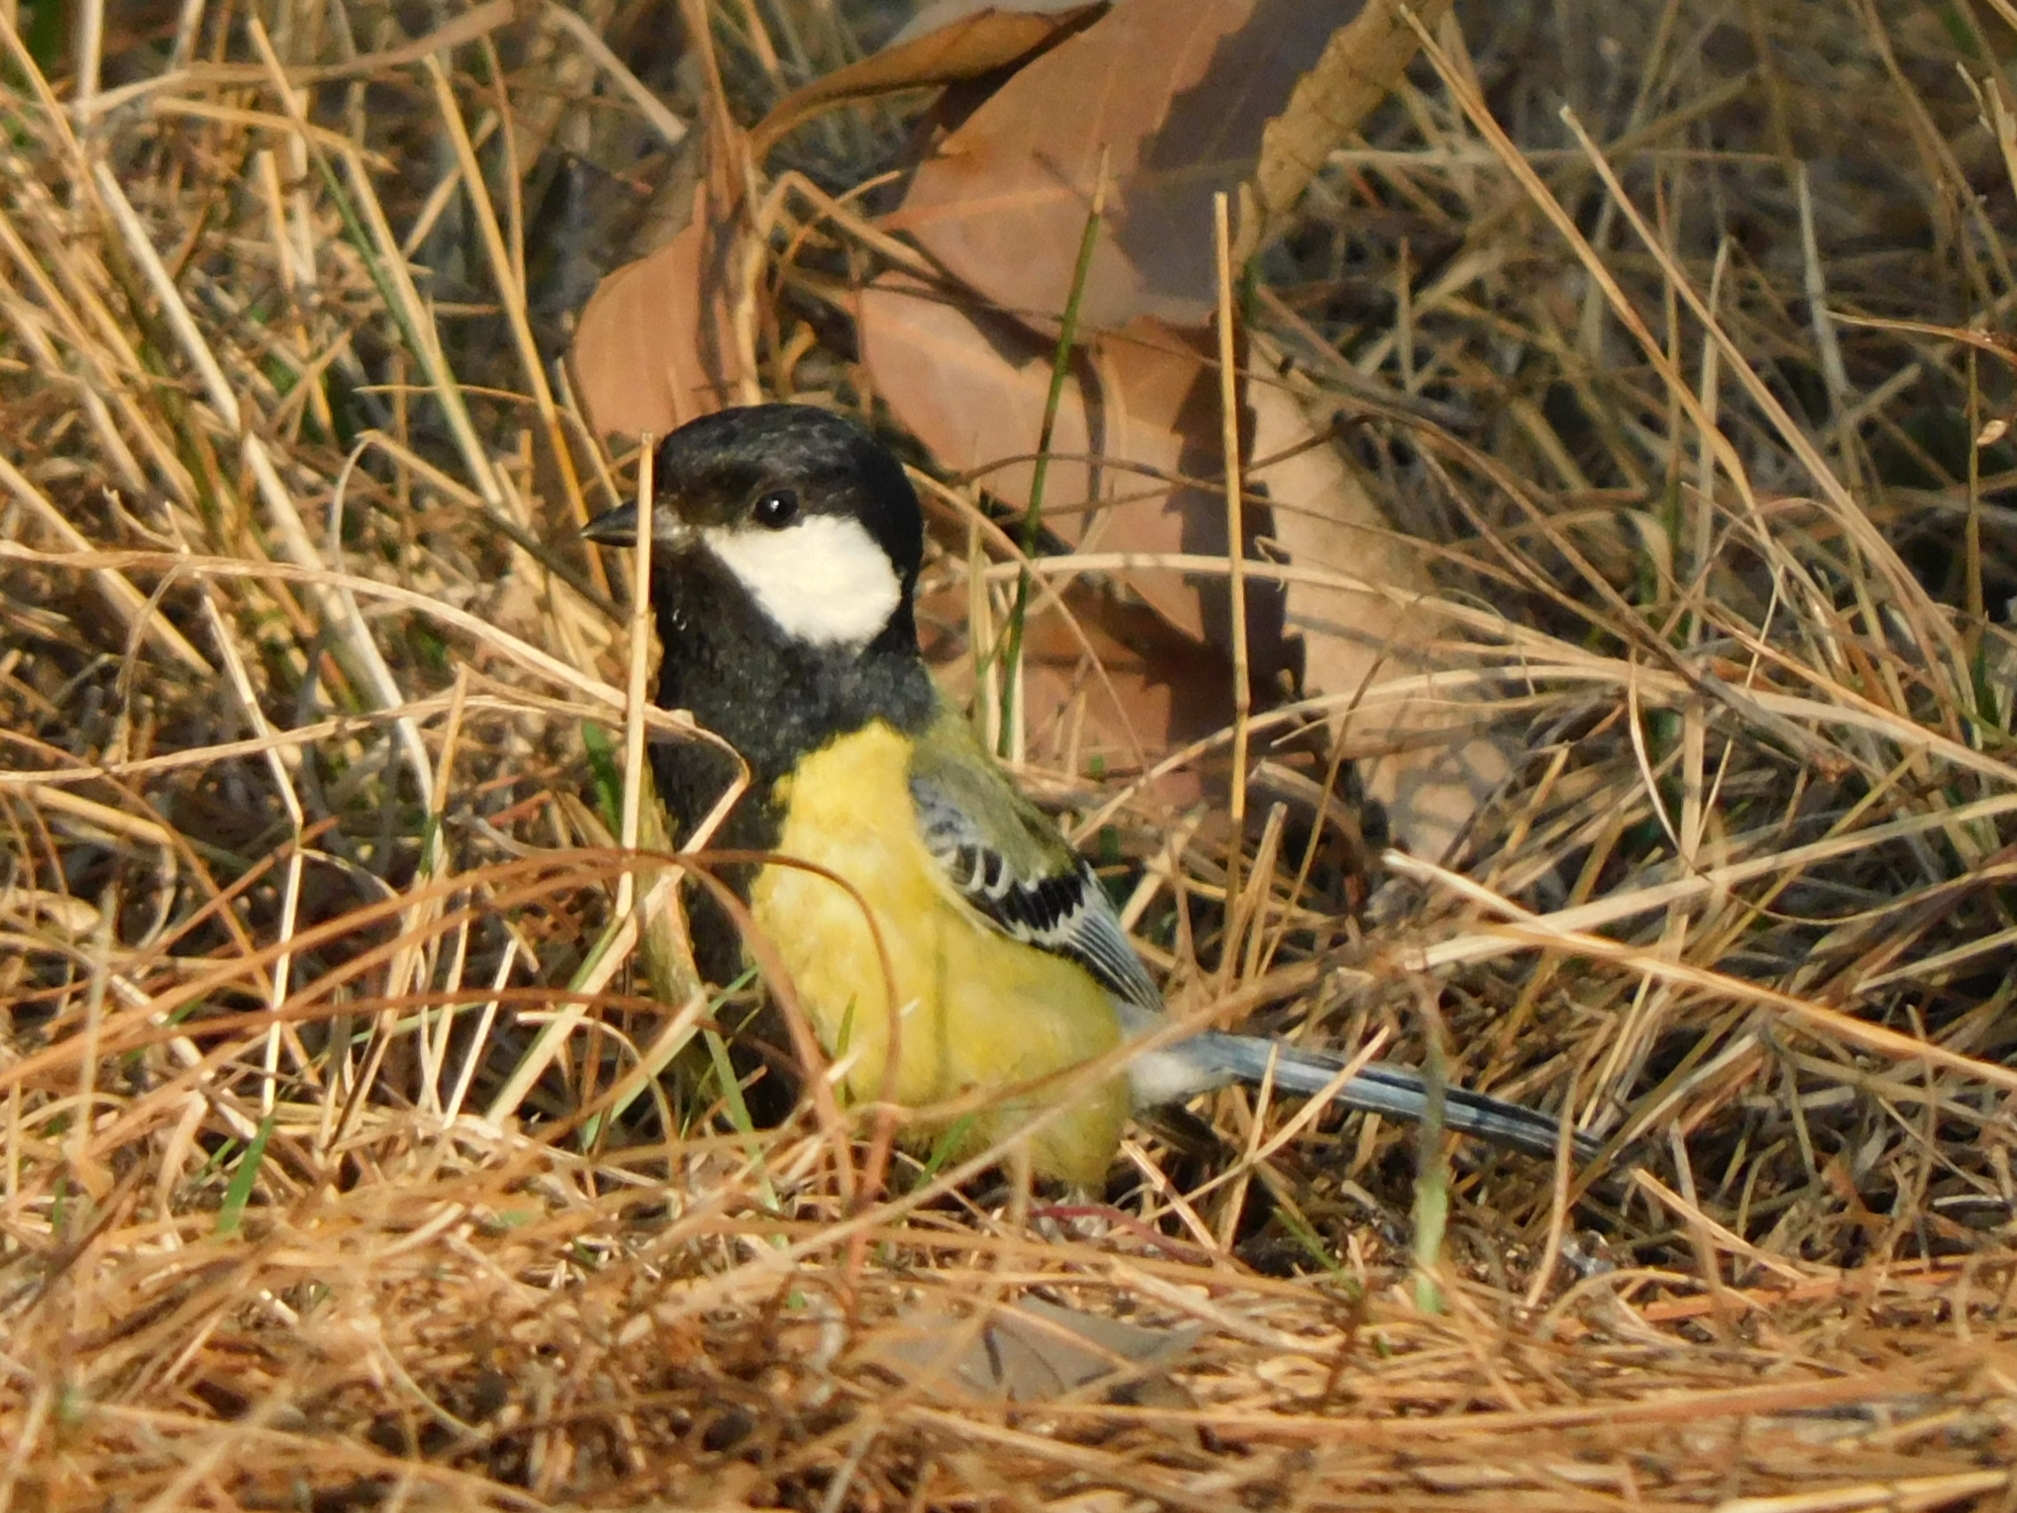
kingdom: Animalia
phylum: Chordata
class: Aves
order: Passeriformes
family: Paridae
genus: Parus
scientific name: Parus monticolus
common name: Green-backed tit
